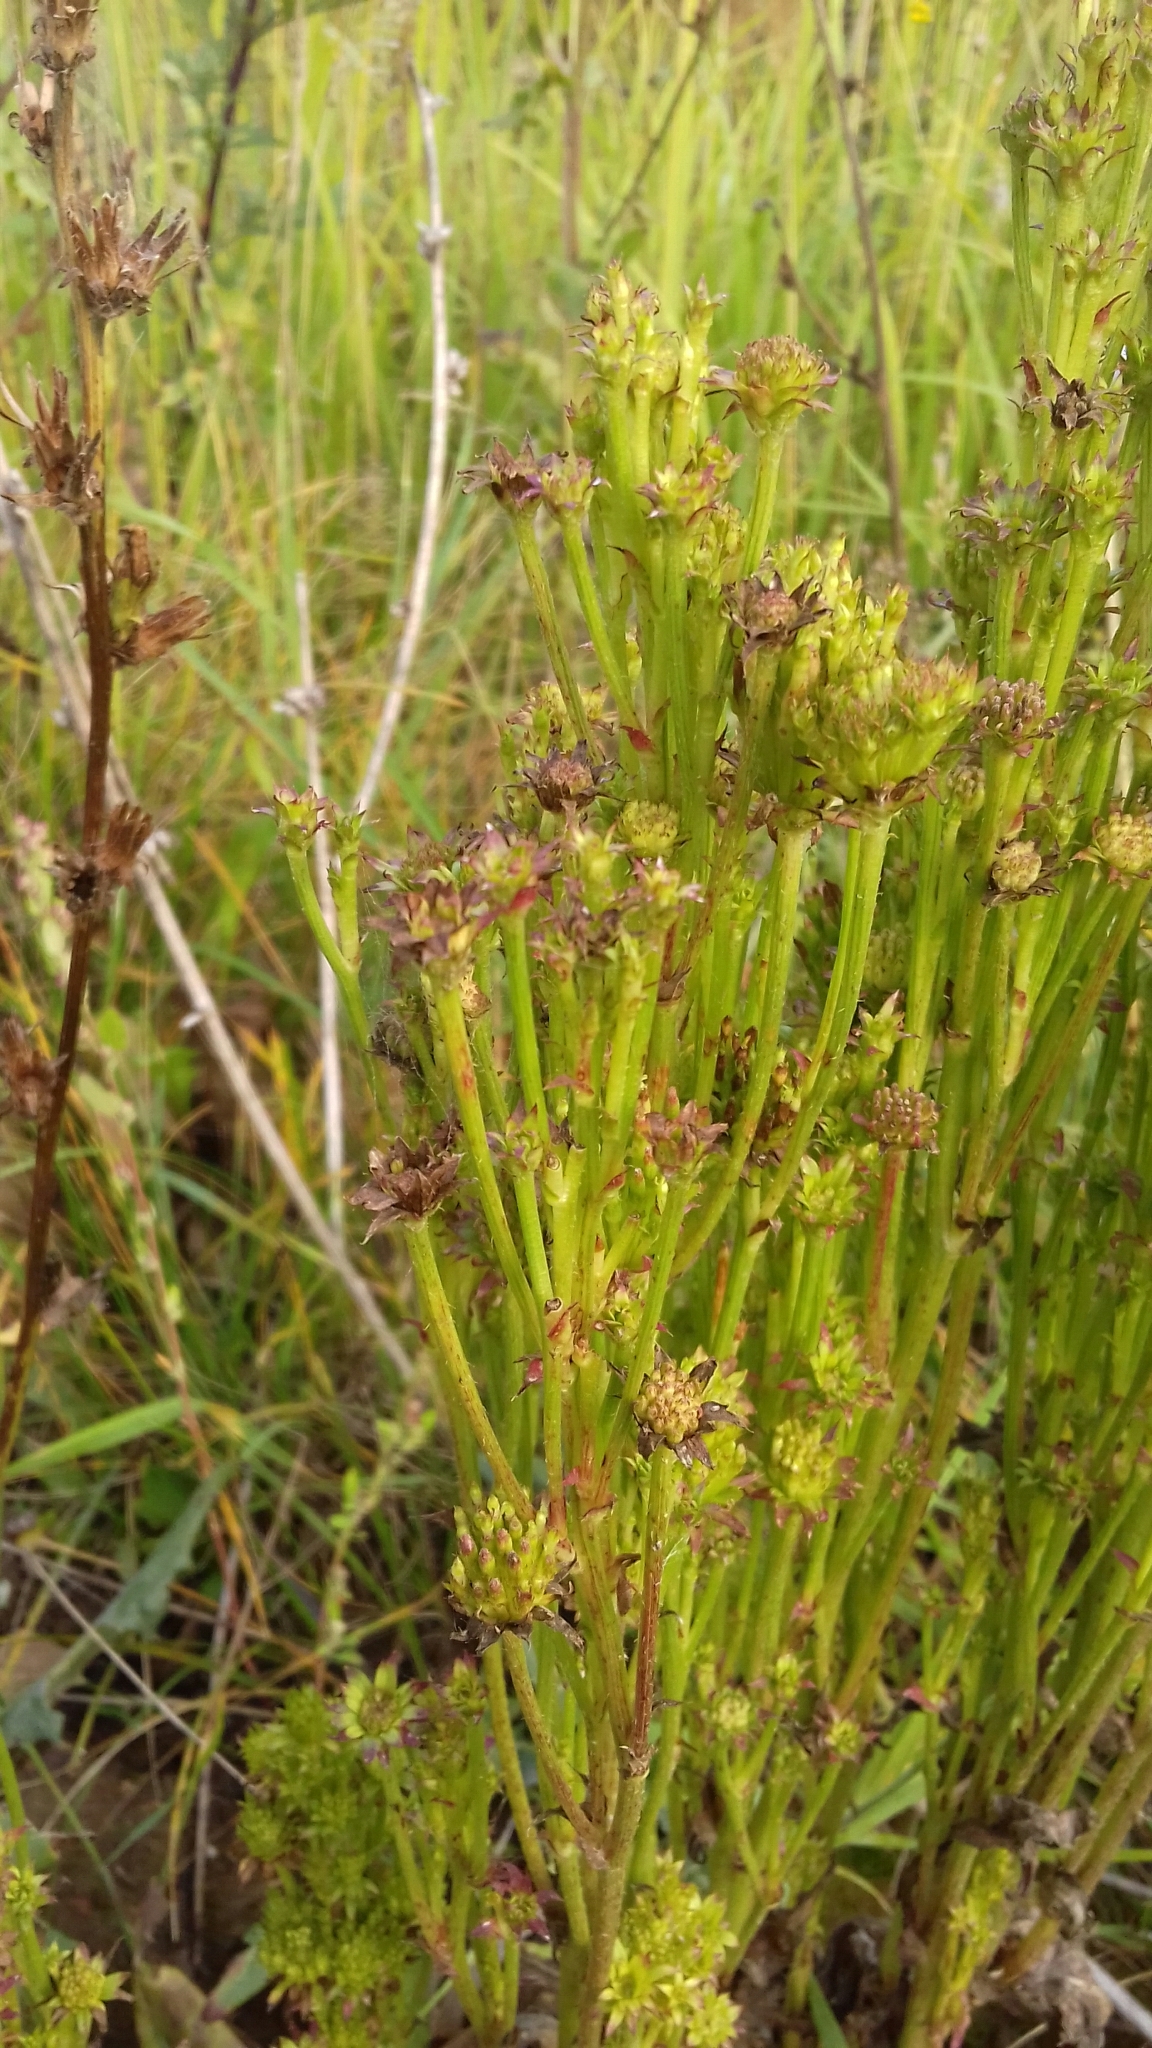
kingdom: Plantae
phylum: Tracheophyta
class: Magnoliopsida
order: Asterales
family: Asteraceae
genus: Cichorium
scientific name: Cichorium intybus
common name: Chicory
